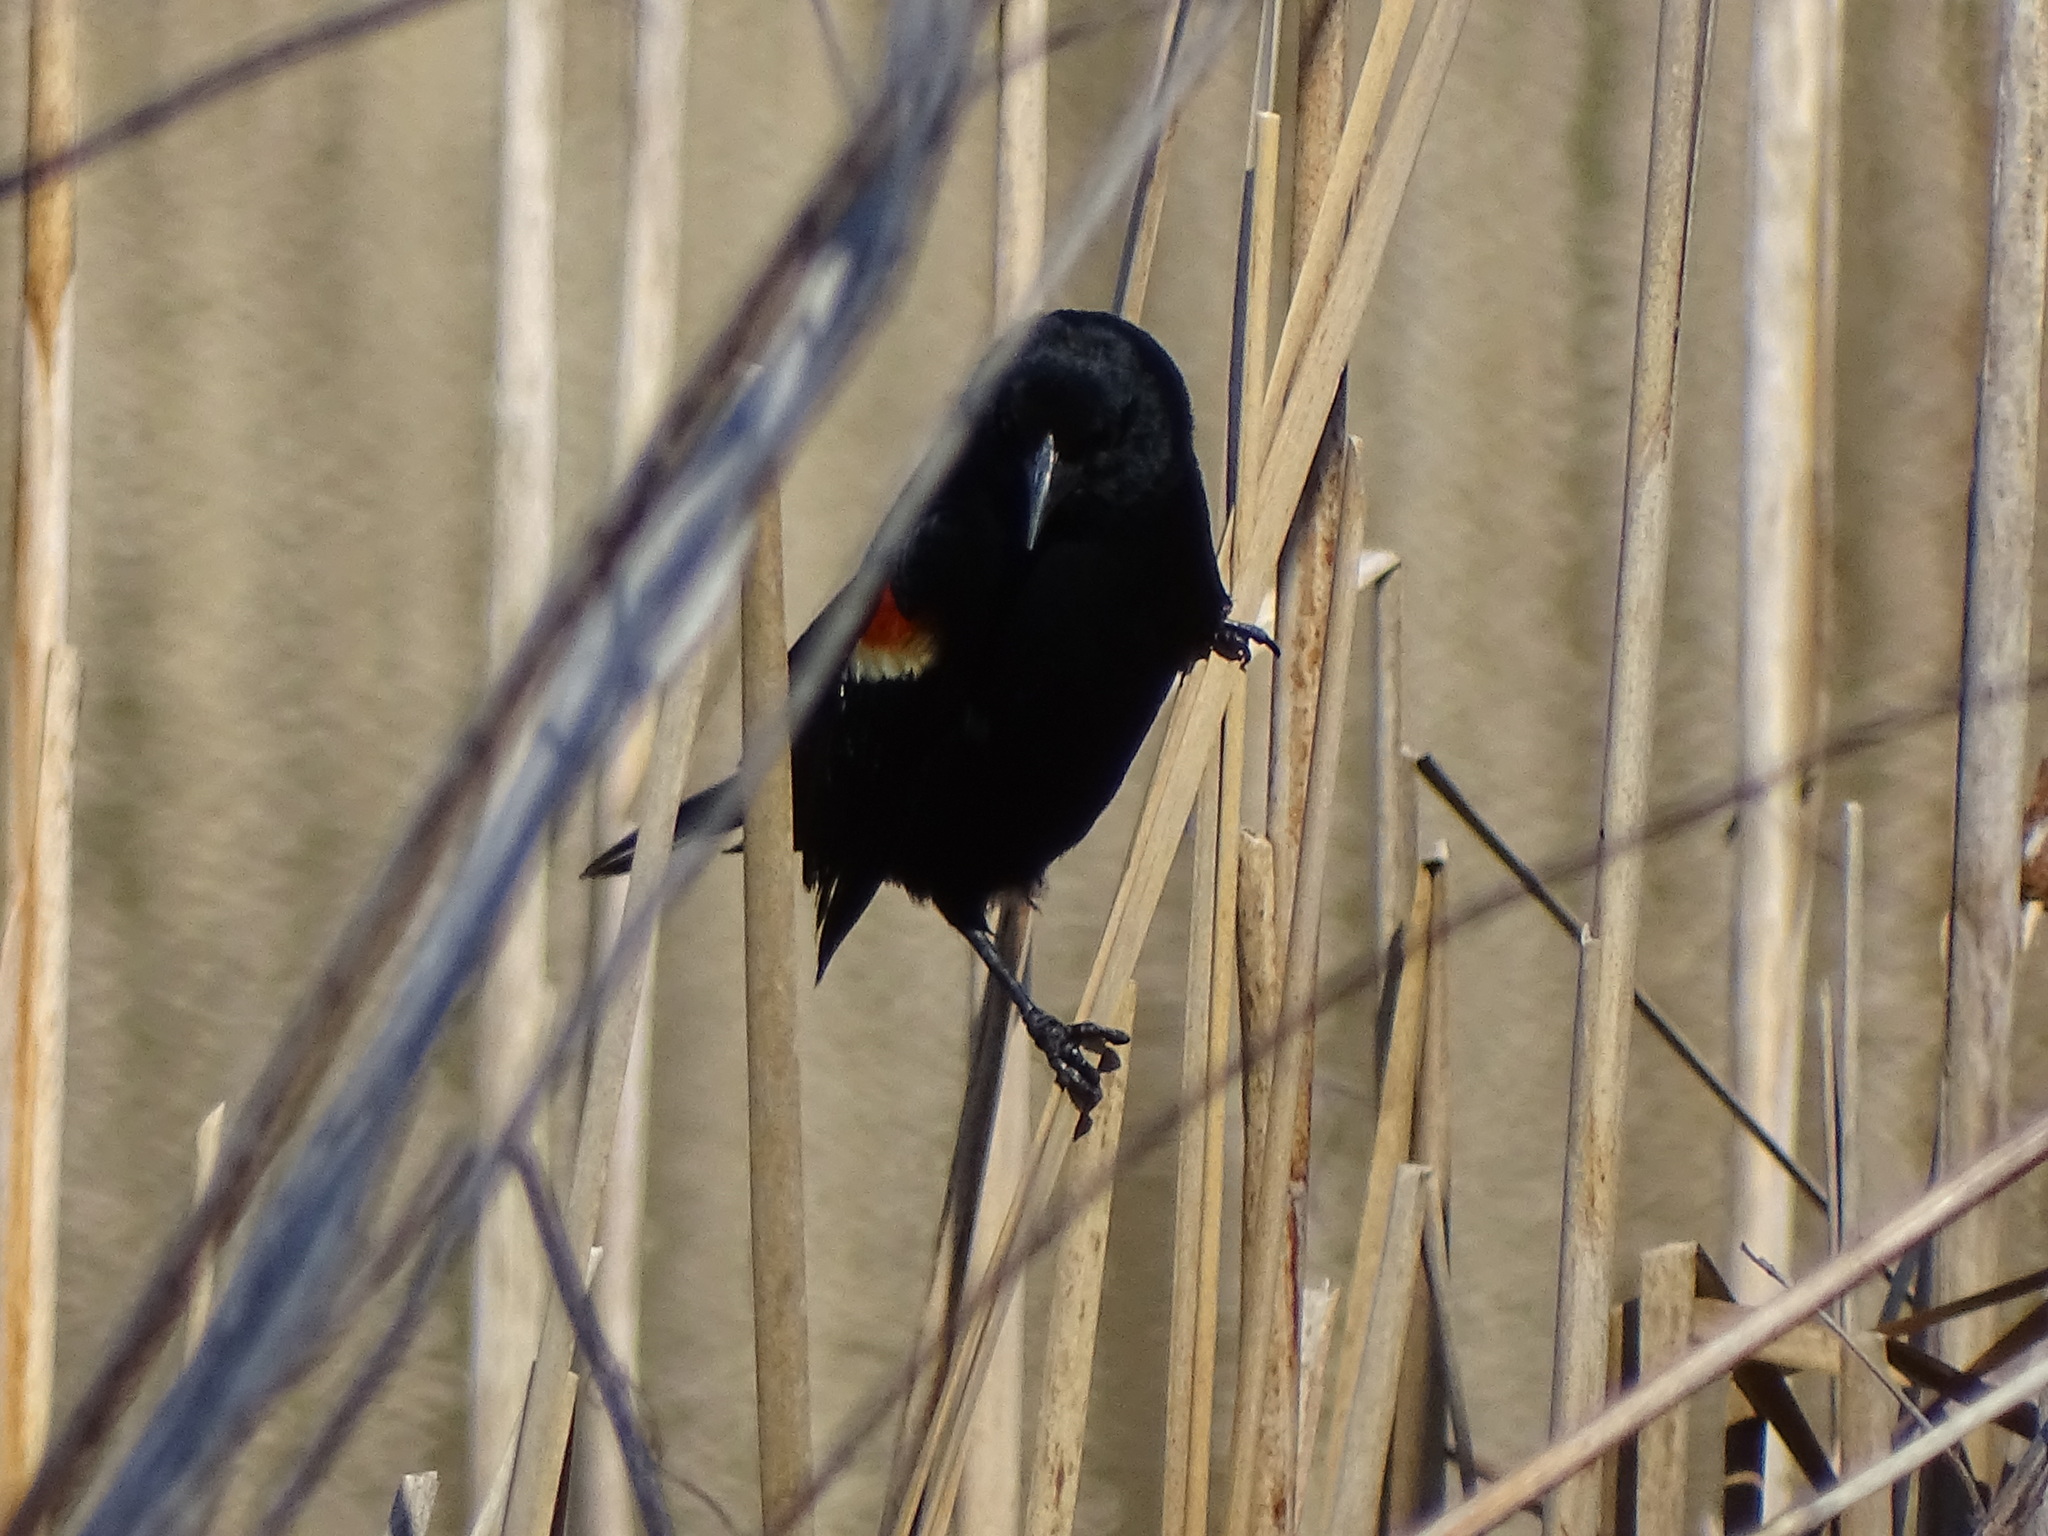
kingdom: Animalia
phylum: Chordata
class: Aves
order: Passeriformes
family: Icteridae
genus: Agelaius
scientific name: Agelaius phoeniceus
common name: Red-winged blackbird
